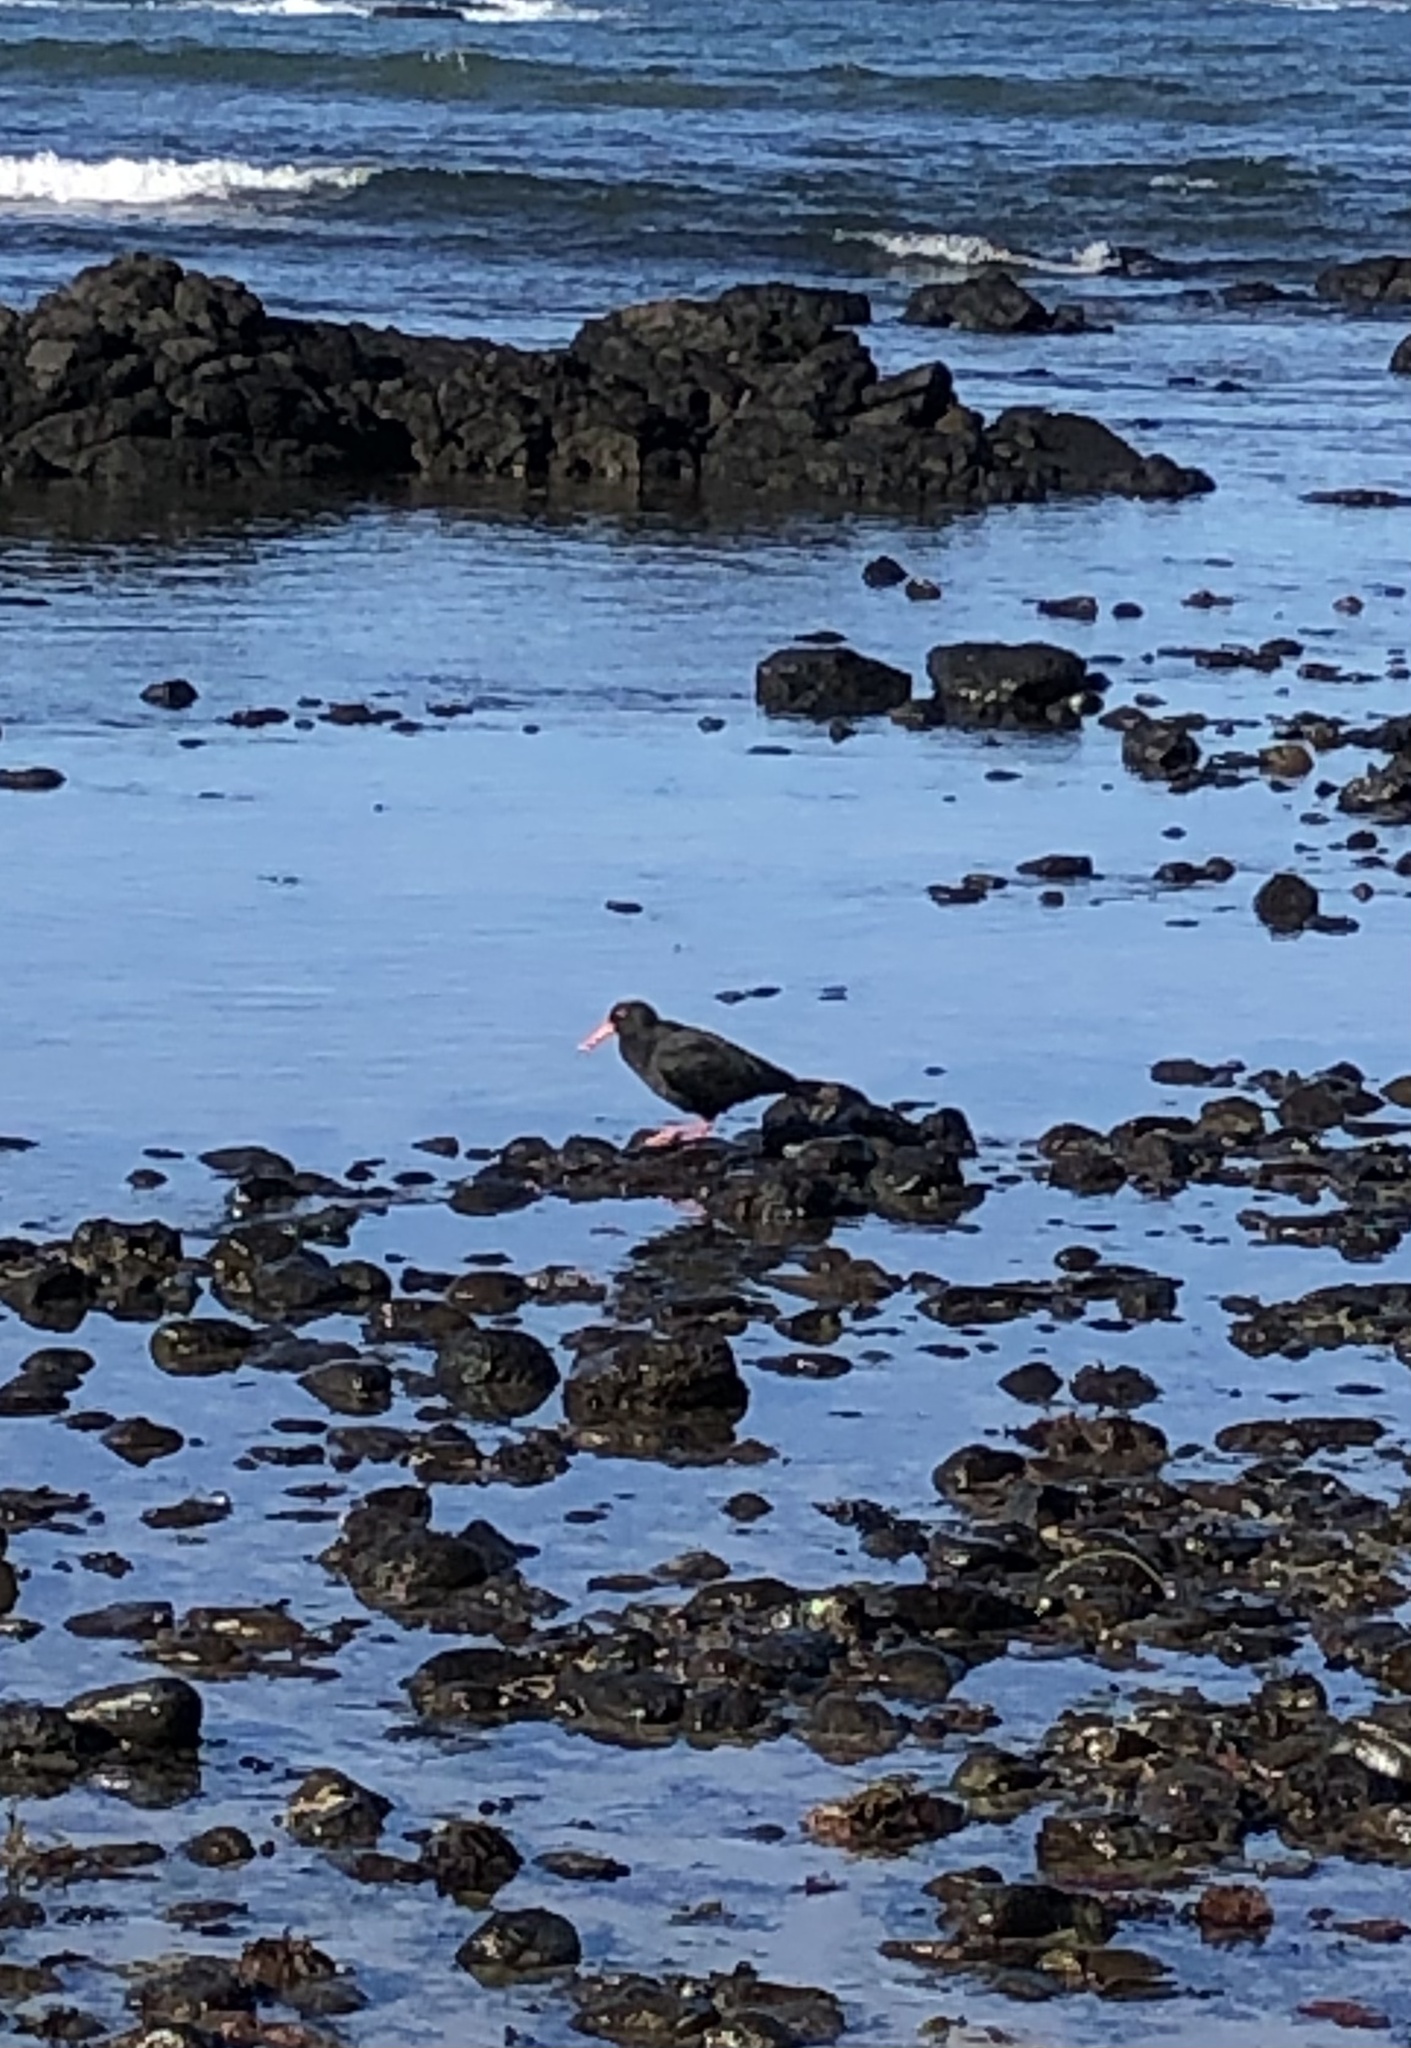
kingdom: Animalia
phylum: Chordata
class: Aves
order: Charadriiformes
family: Haematopodidae
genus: Haematopus
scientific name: Haematopus fuliginosus
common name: Sooty oystercatcher
